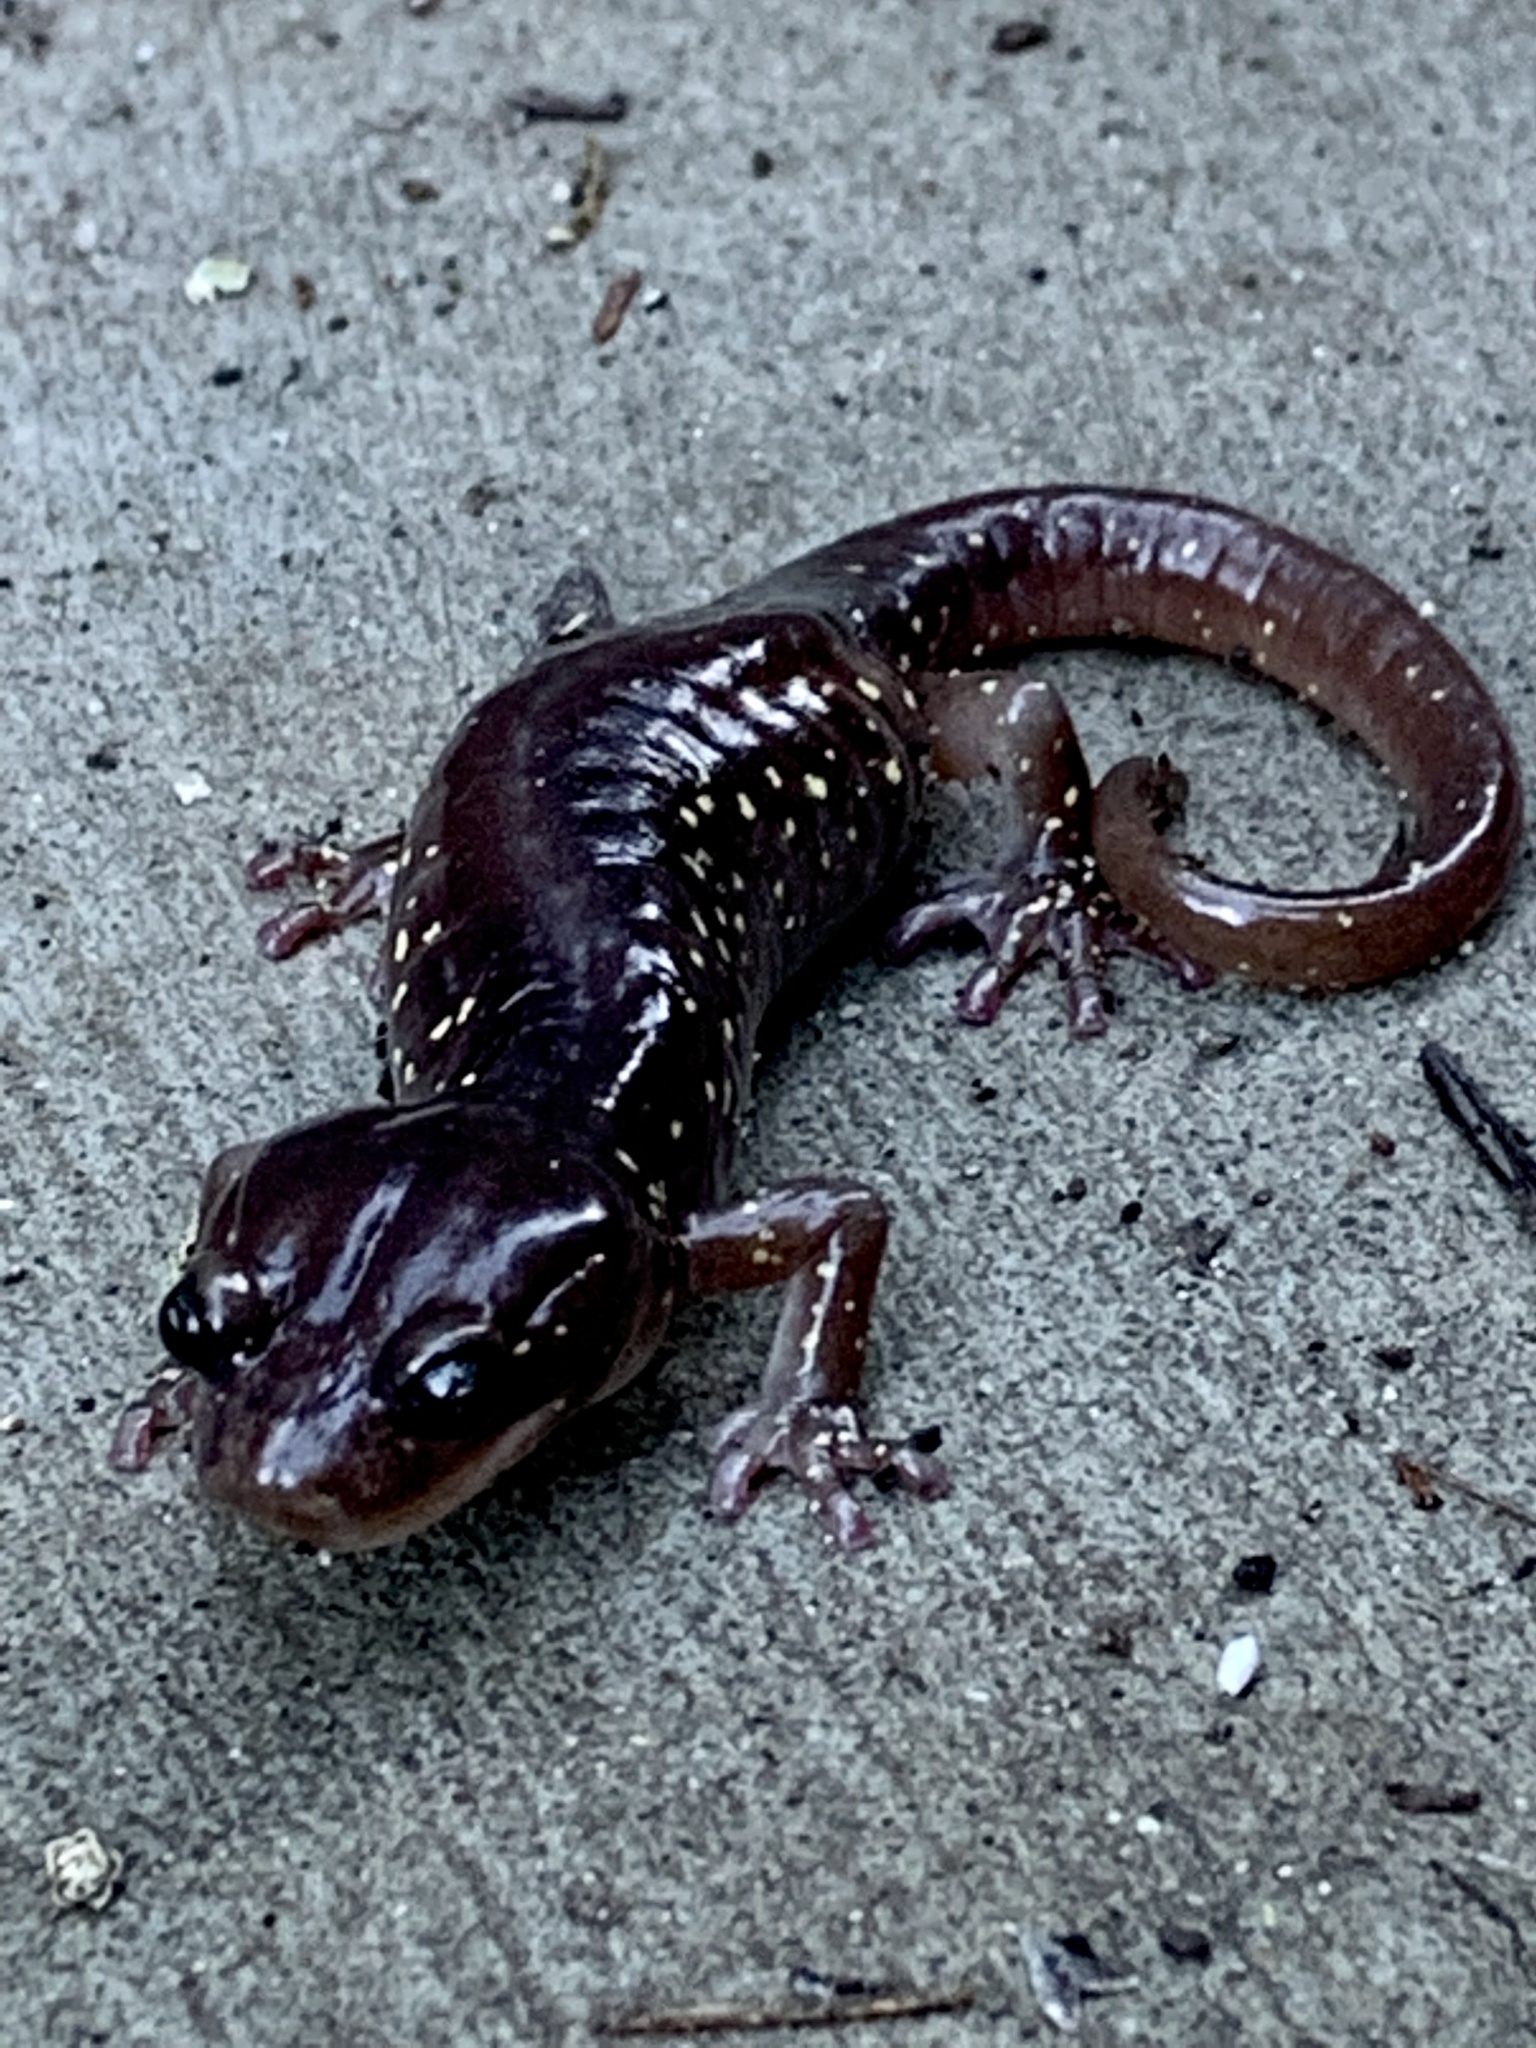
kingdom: Animalia
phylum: Chordata
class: Amphibia
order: Caudata
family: Plethodontidae
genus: Aneides
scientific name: Aneides lugubris
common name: Arboreal salamander
